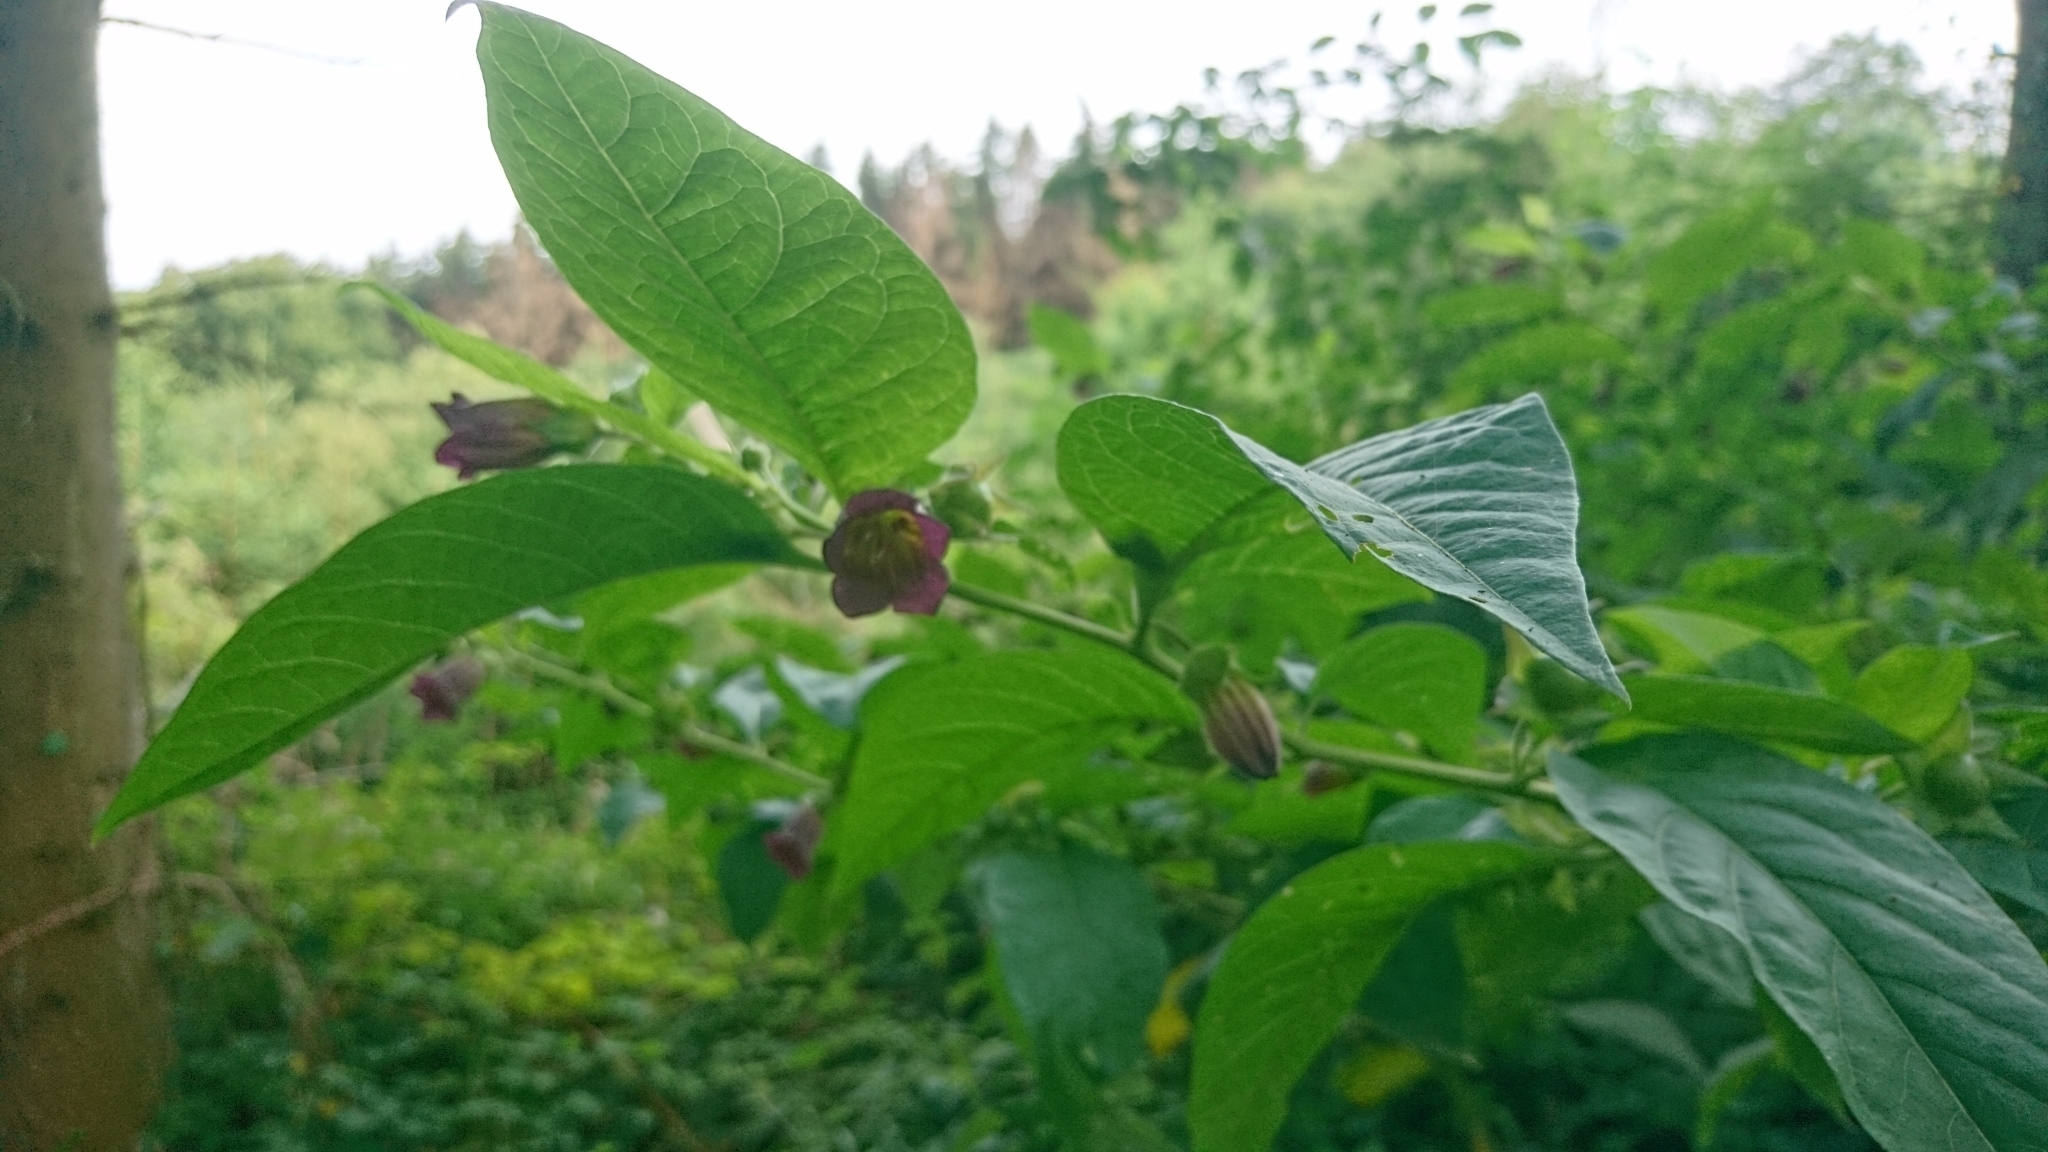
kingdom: Plantae
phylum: Tracheophyta
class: Magnoliopsida
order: Solanales
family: Solanaceae
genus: Atropa
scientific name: Atropa belladonna
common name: Deadly nightshade
